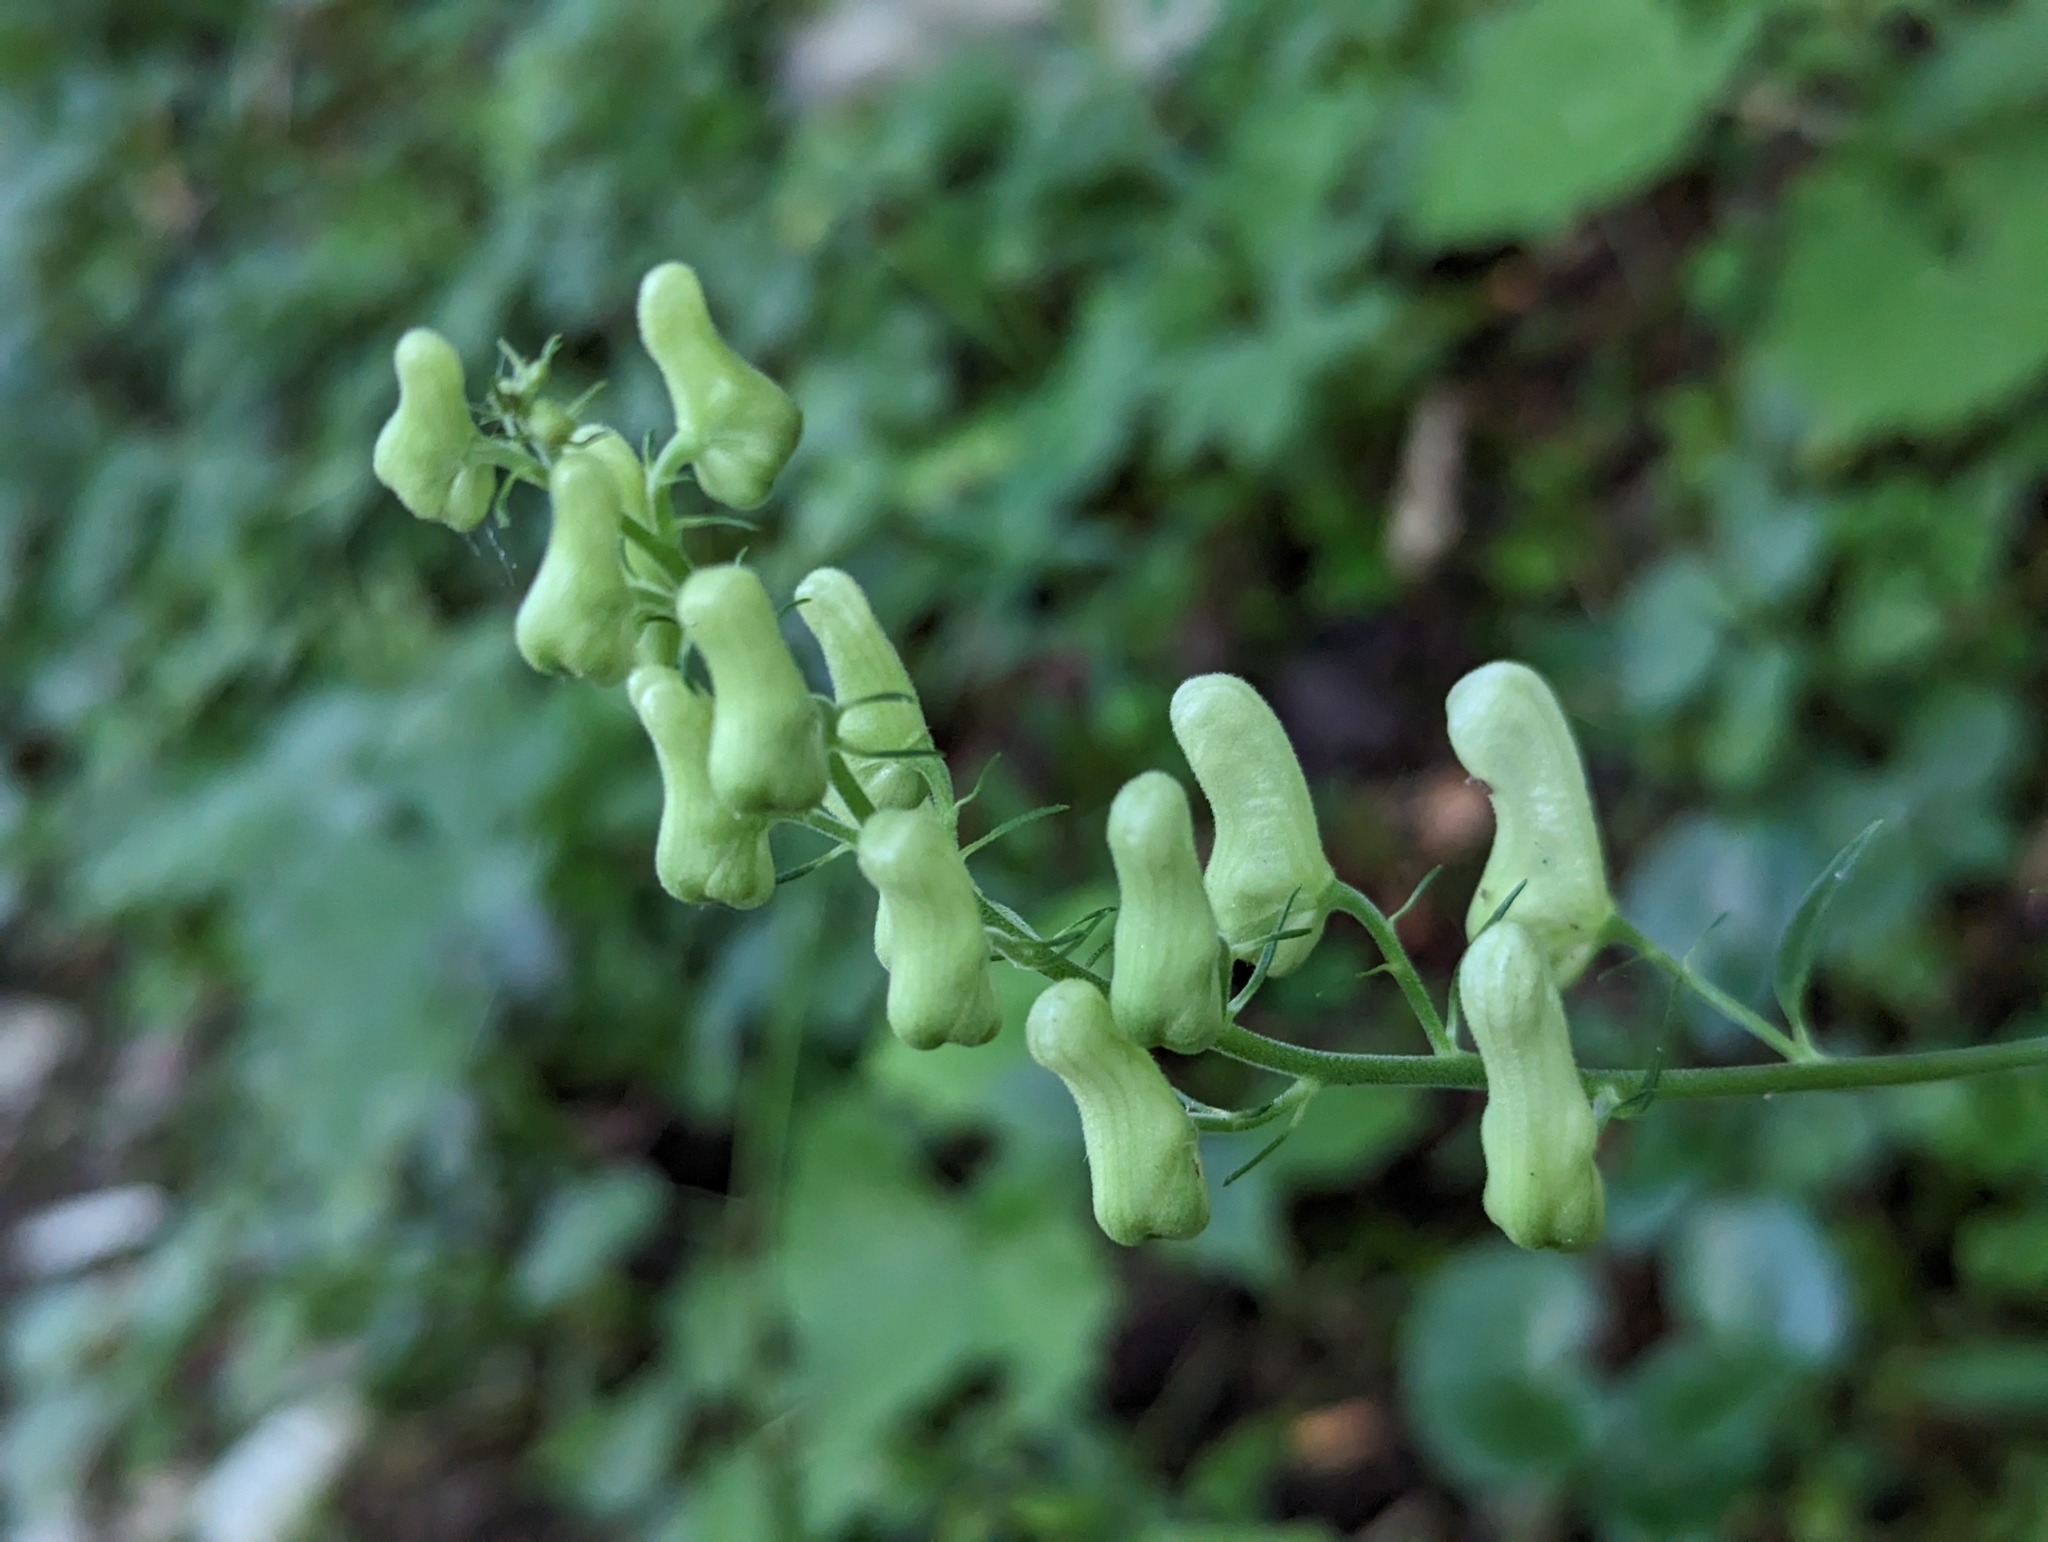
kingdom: Plantae
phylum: Tracheophyta
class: Magnoliopsida
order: Ranunculales
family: Ranunculaceae
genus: Aconitum
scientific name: Aconitum lycoctonum
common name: Wolf's-bane
